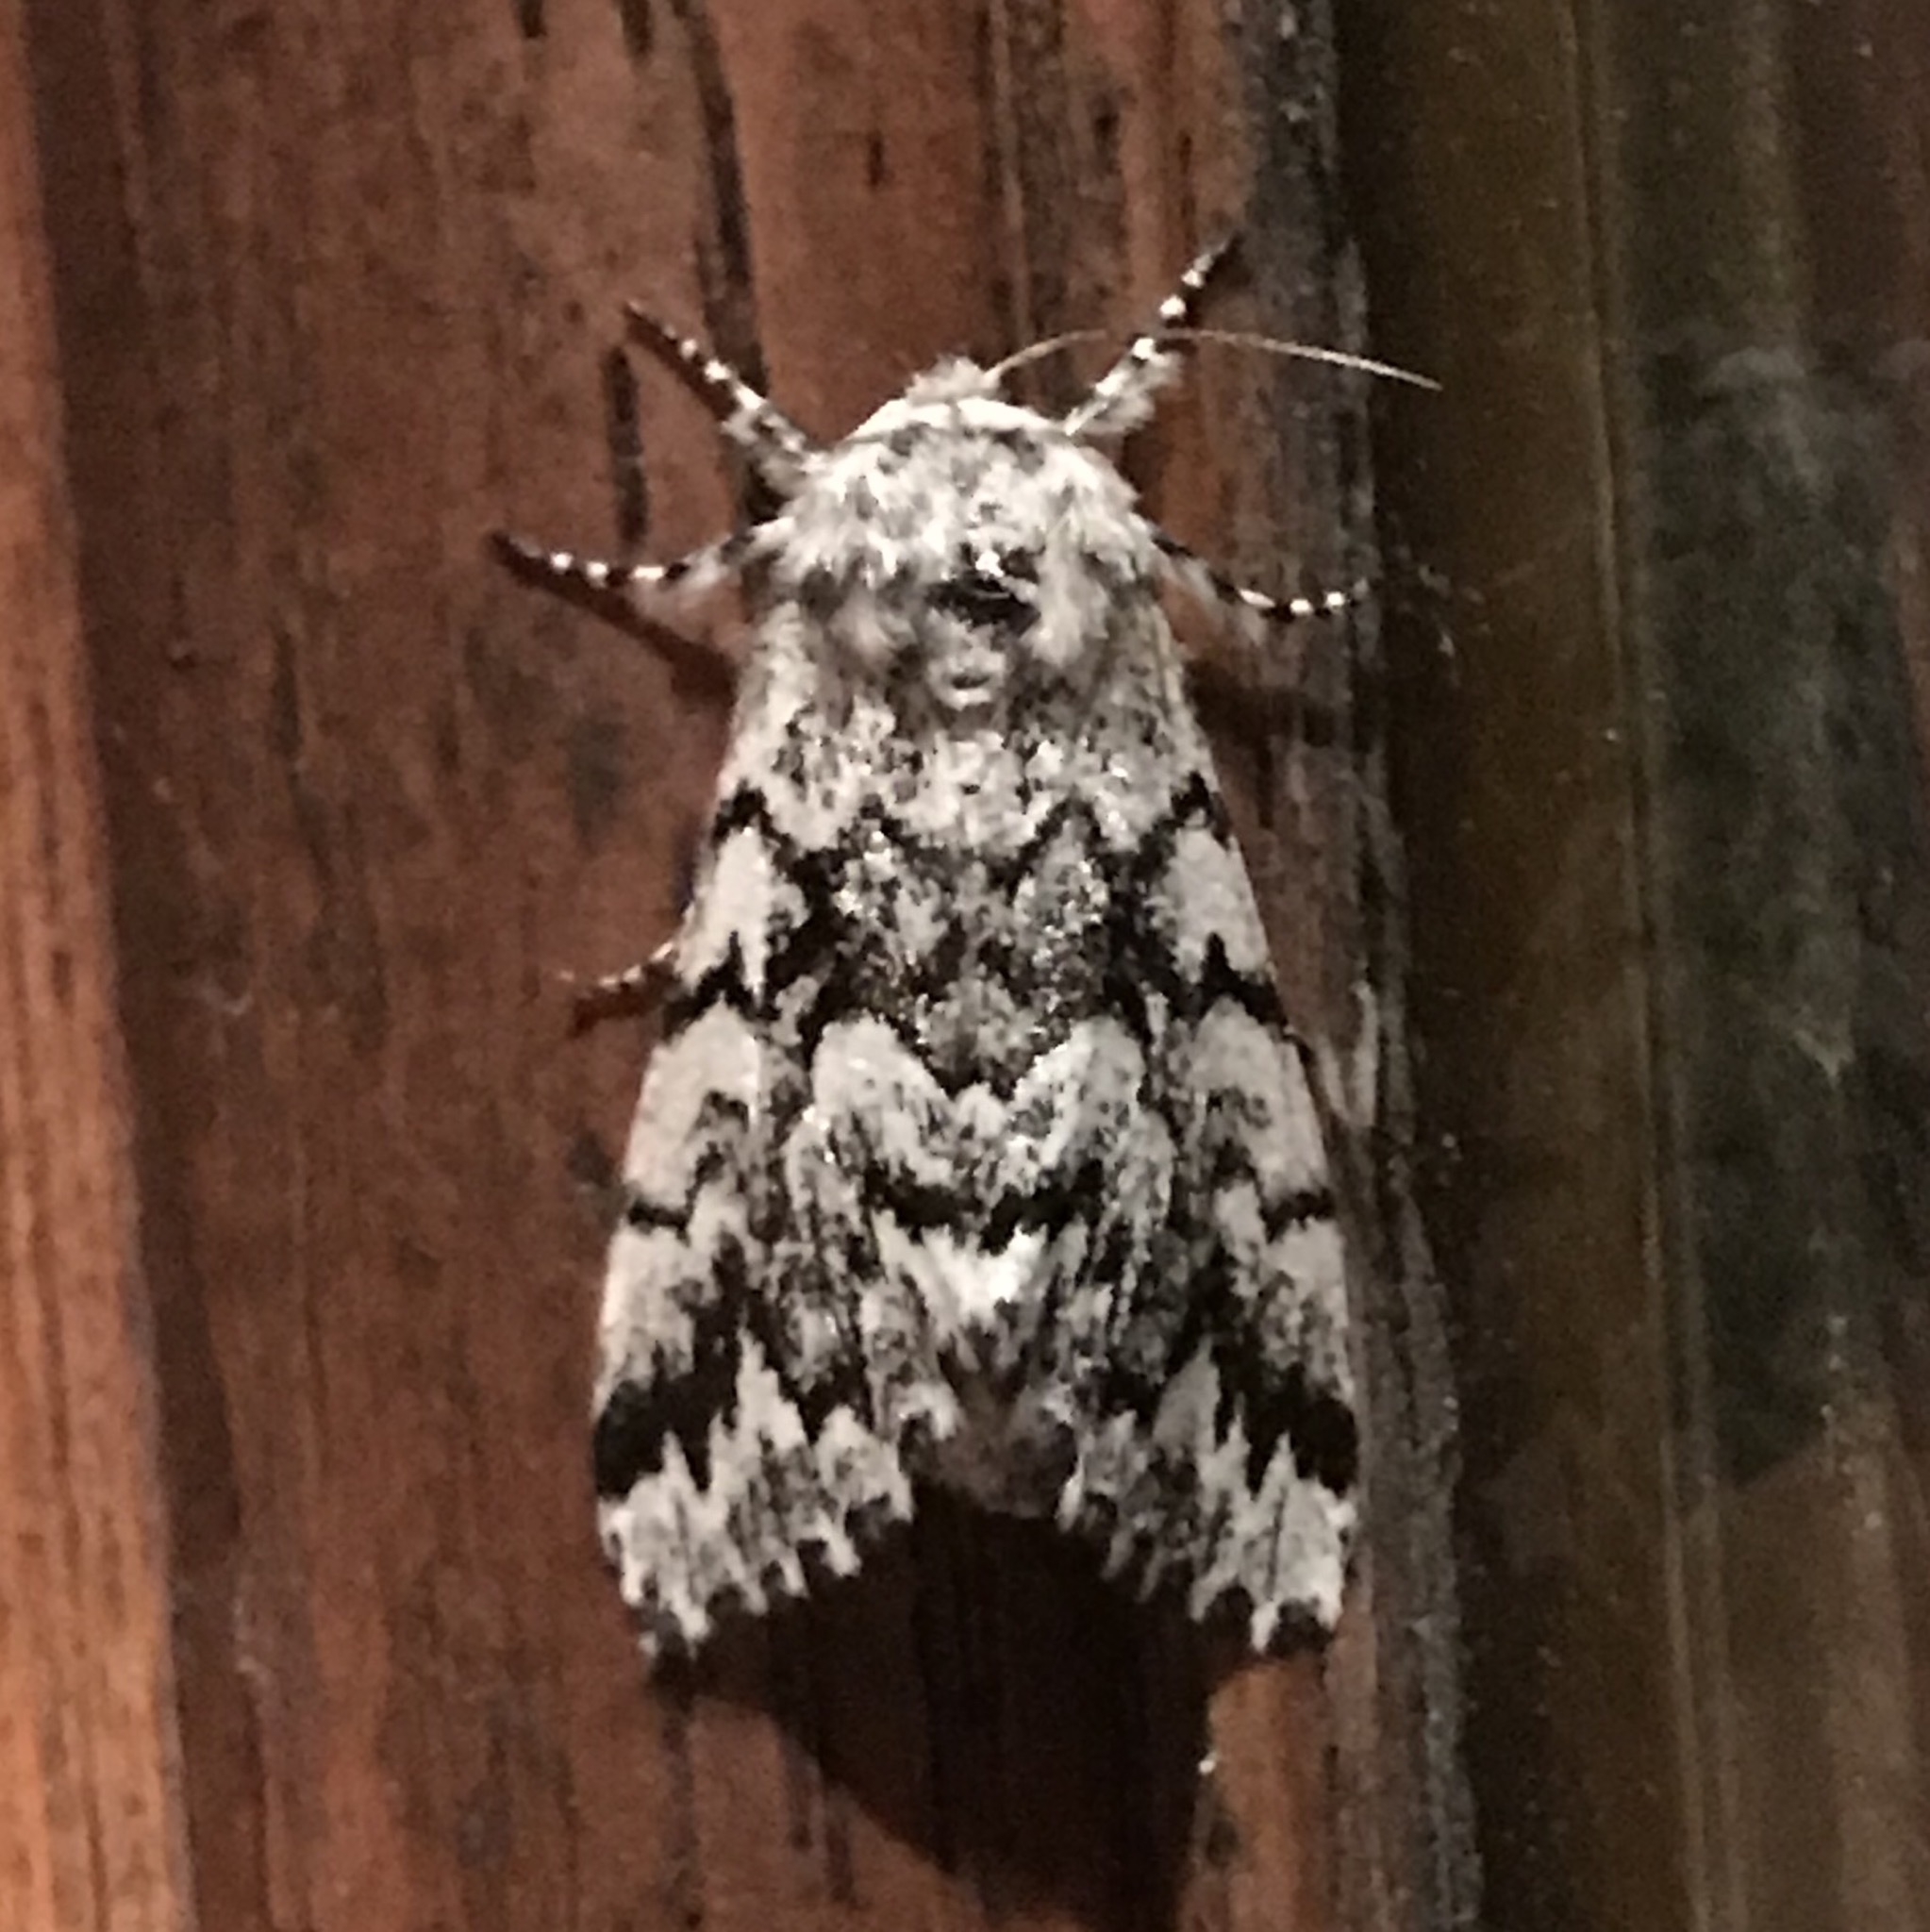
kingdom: Animalia
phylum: Arthropoda
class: Insecta
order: Lepidoptera
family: Noctuidae
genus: Panthea
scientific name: Panthea acronyctoides
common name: Black zigzag moth
